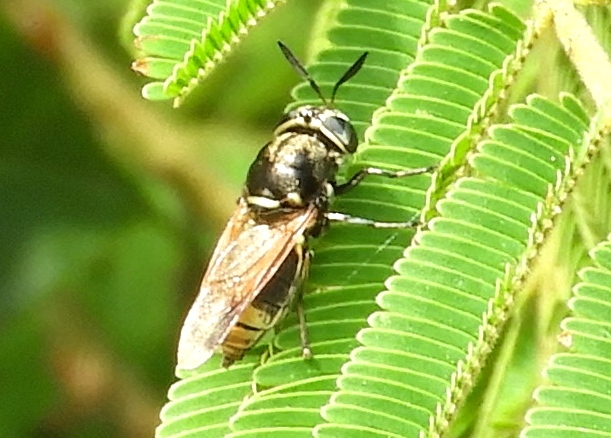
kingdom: Animalia
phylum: Arthropoda
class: Insecta
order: Diptera
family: Stratiomyidae
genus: Hoplitimyia
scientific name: Hoplitimyia
